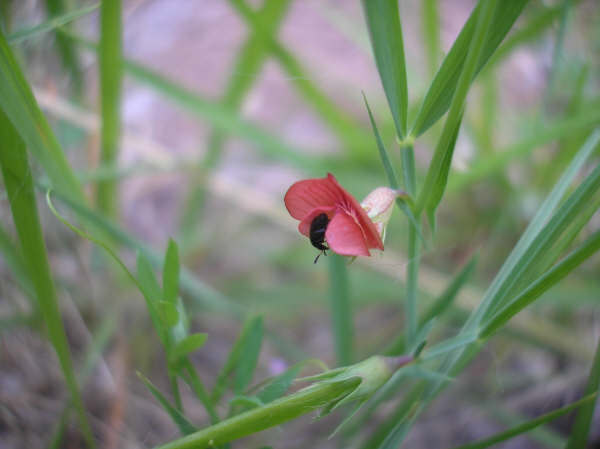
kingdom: Plantae
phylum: Tracheophyta
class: Magnoliopsida
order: Fabales
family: Fabaceae
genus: Lathyrus
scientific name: Lathyrus cicera
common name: Red vetchling
